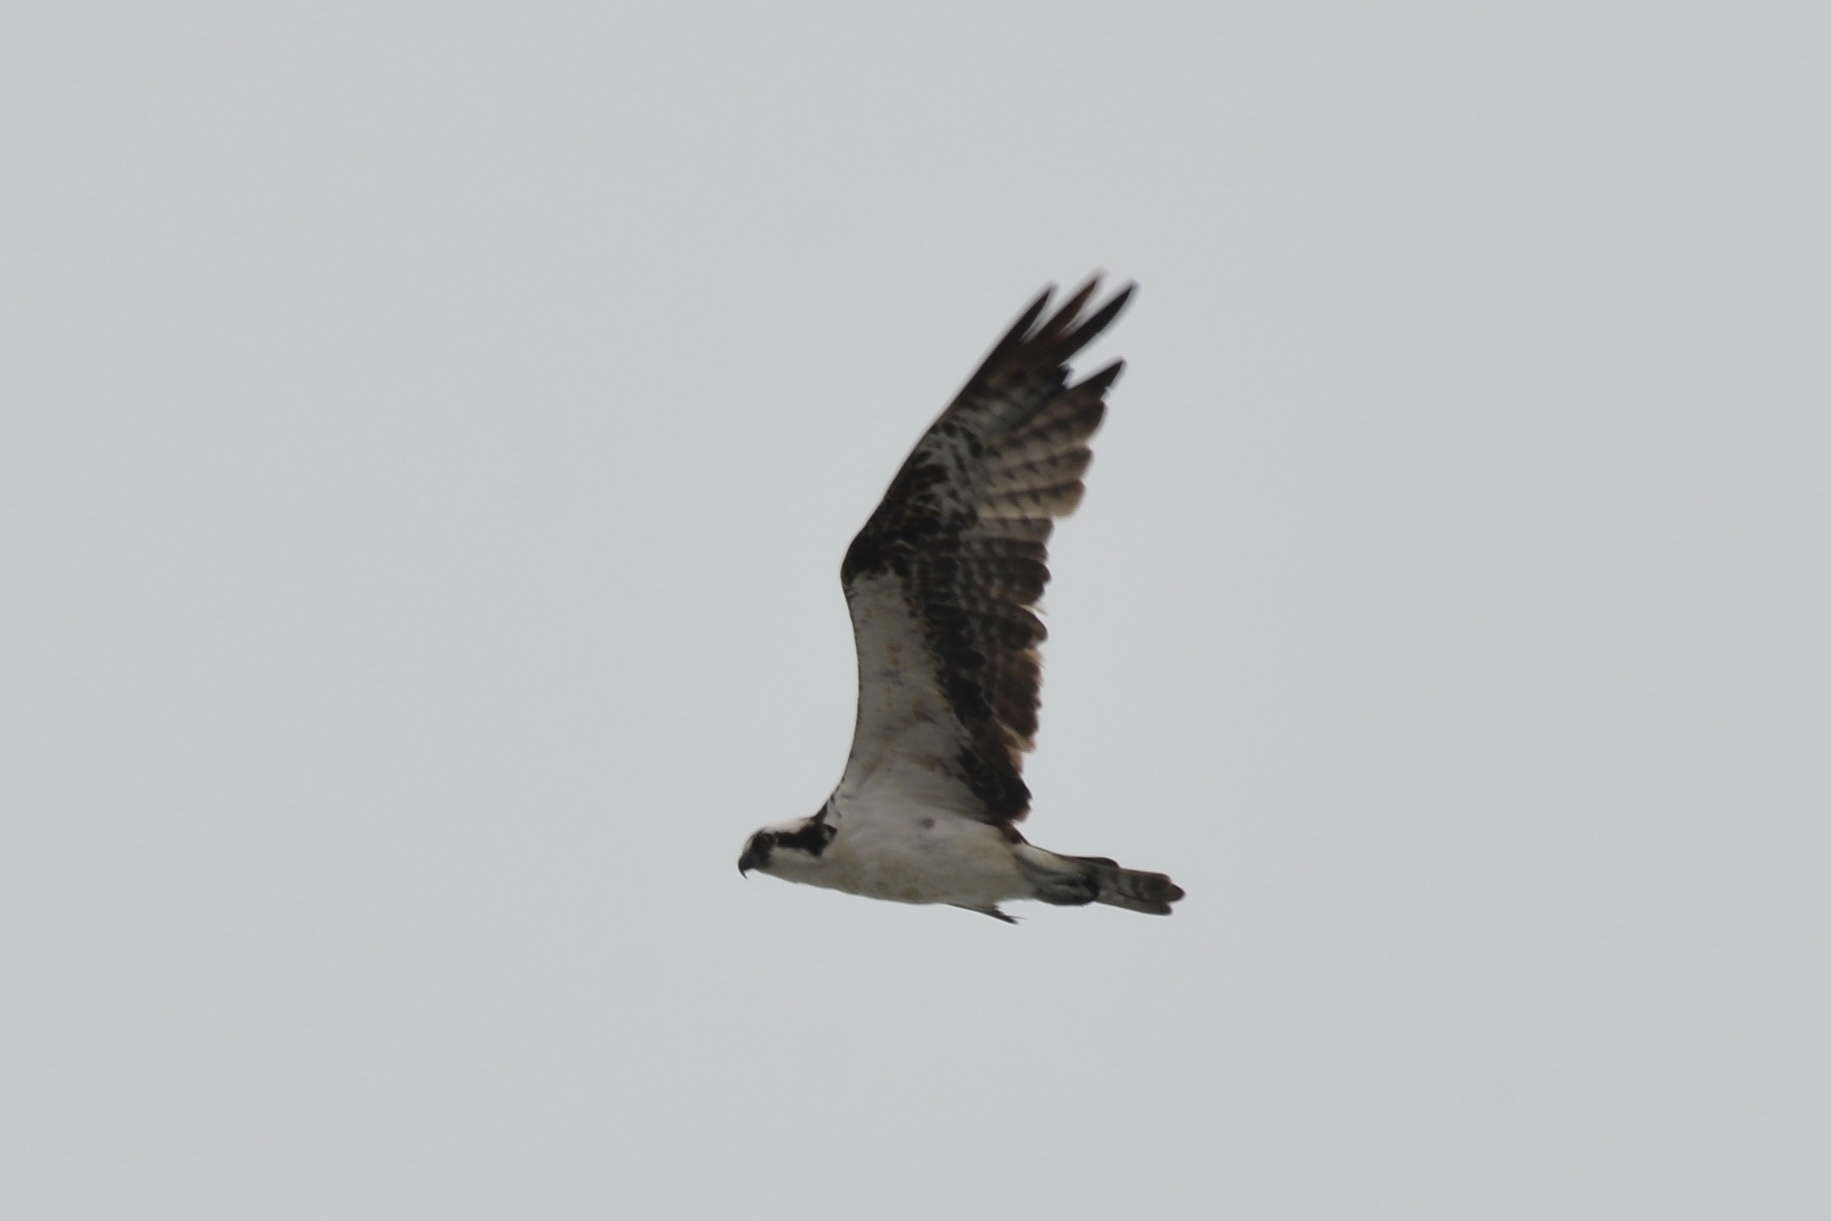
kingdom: Animalia
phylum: Chordata
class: Aves
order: Accipitriformes
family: Pandionidae
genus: Pandion
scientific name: Pandion haliaetus
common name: Osprey
